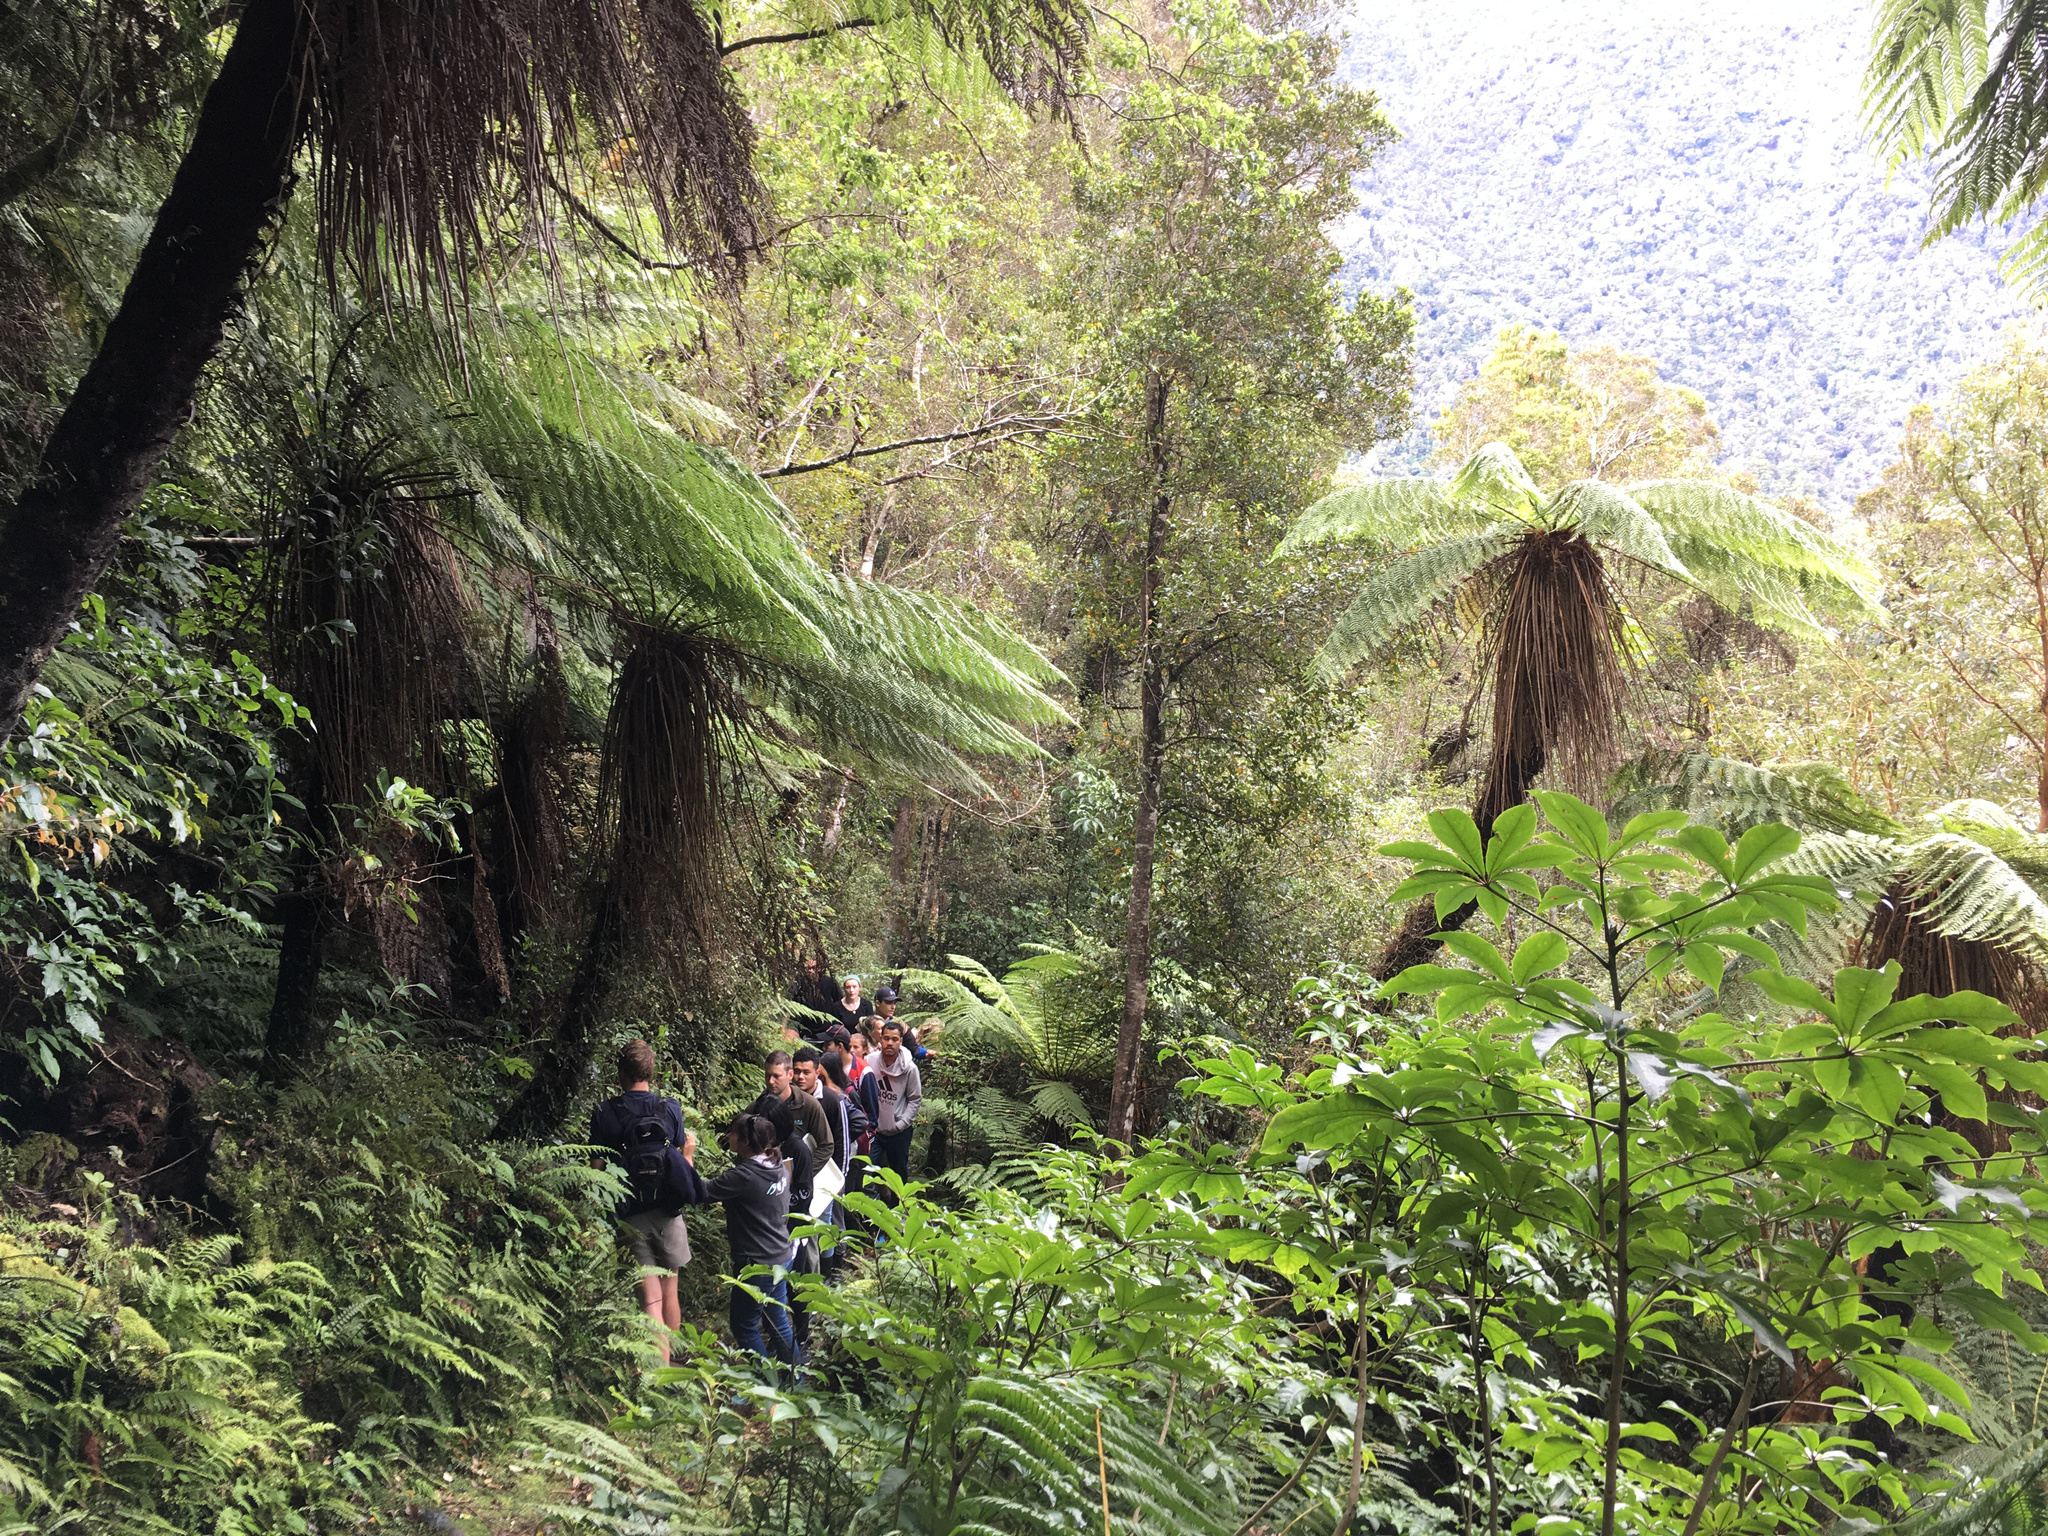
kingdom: Plantae
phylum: Tracheophyta
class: Magnoliopsida
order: Apiales
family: Araliaceae
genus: Schefflera
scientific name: Schefflera digitata
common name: Pate
